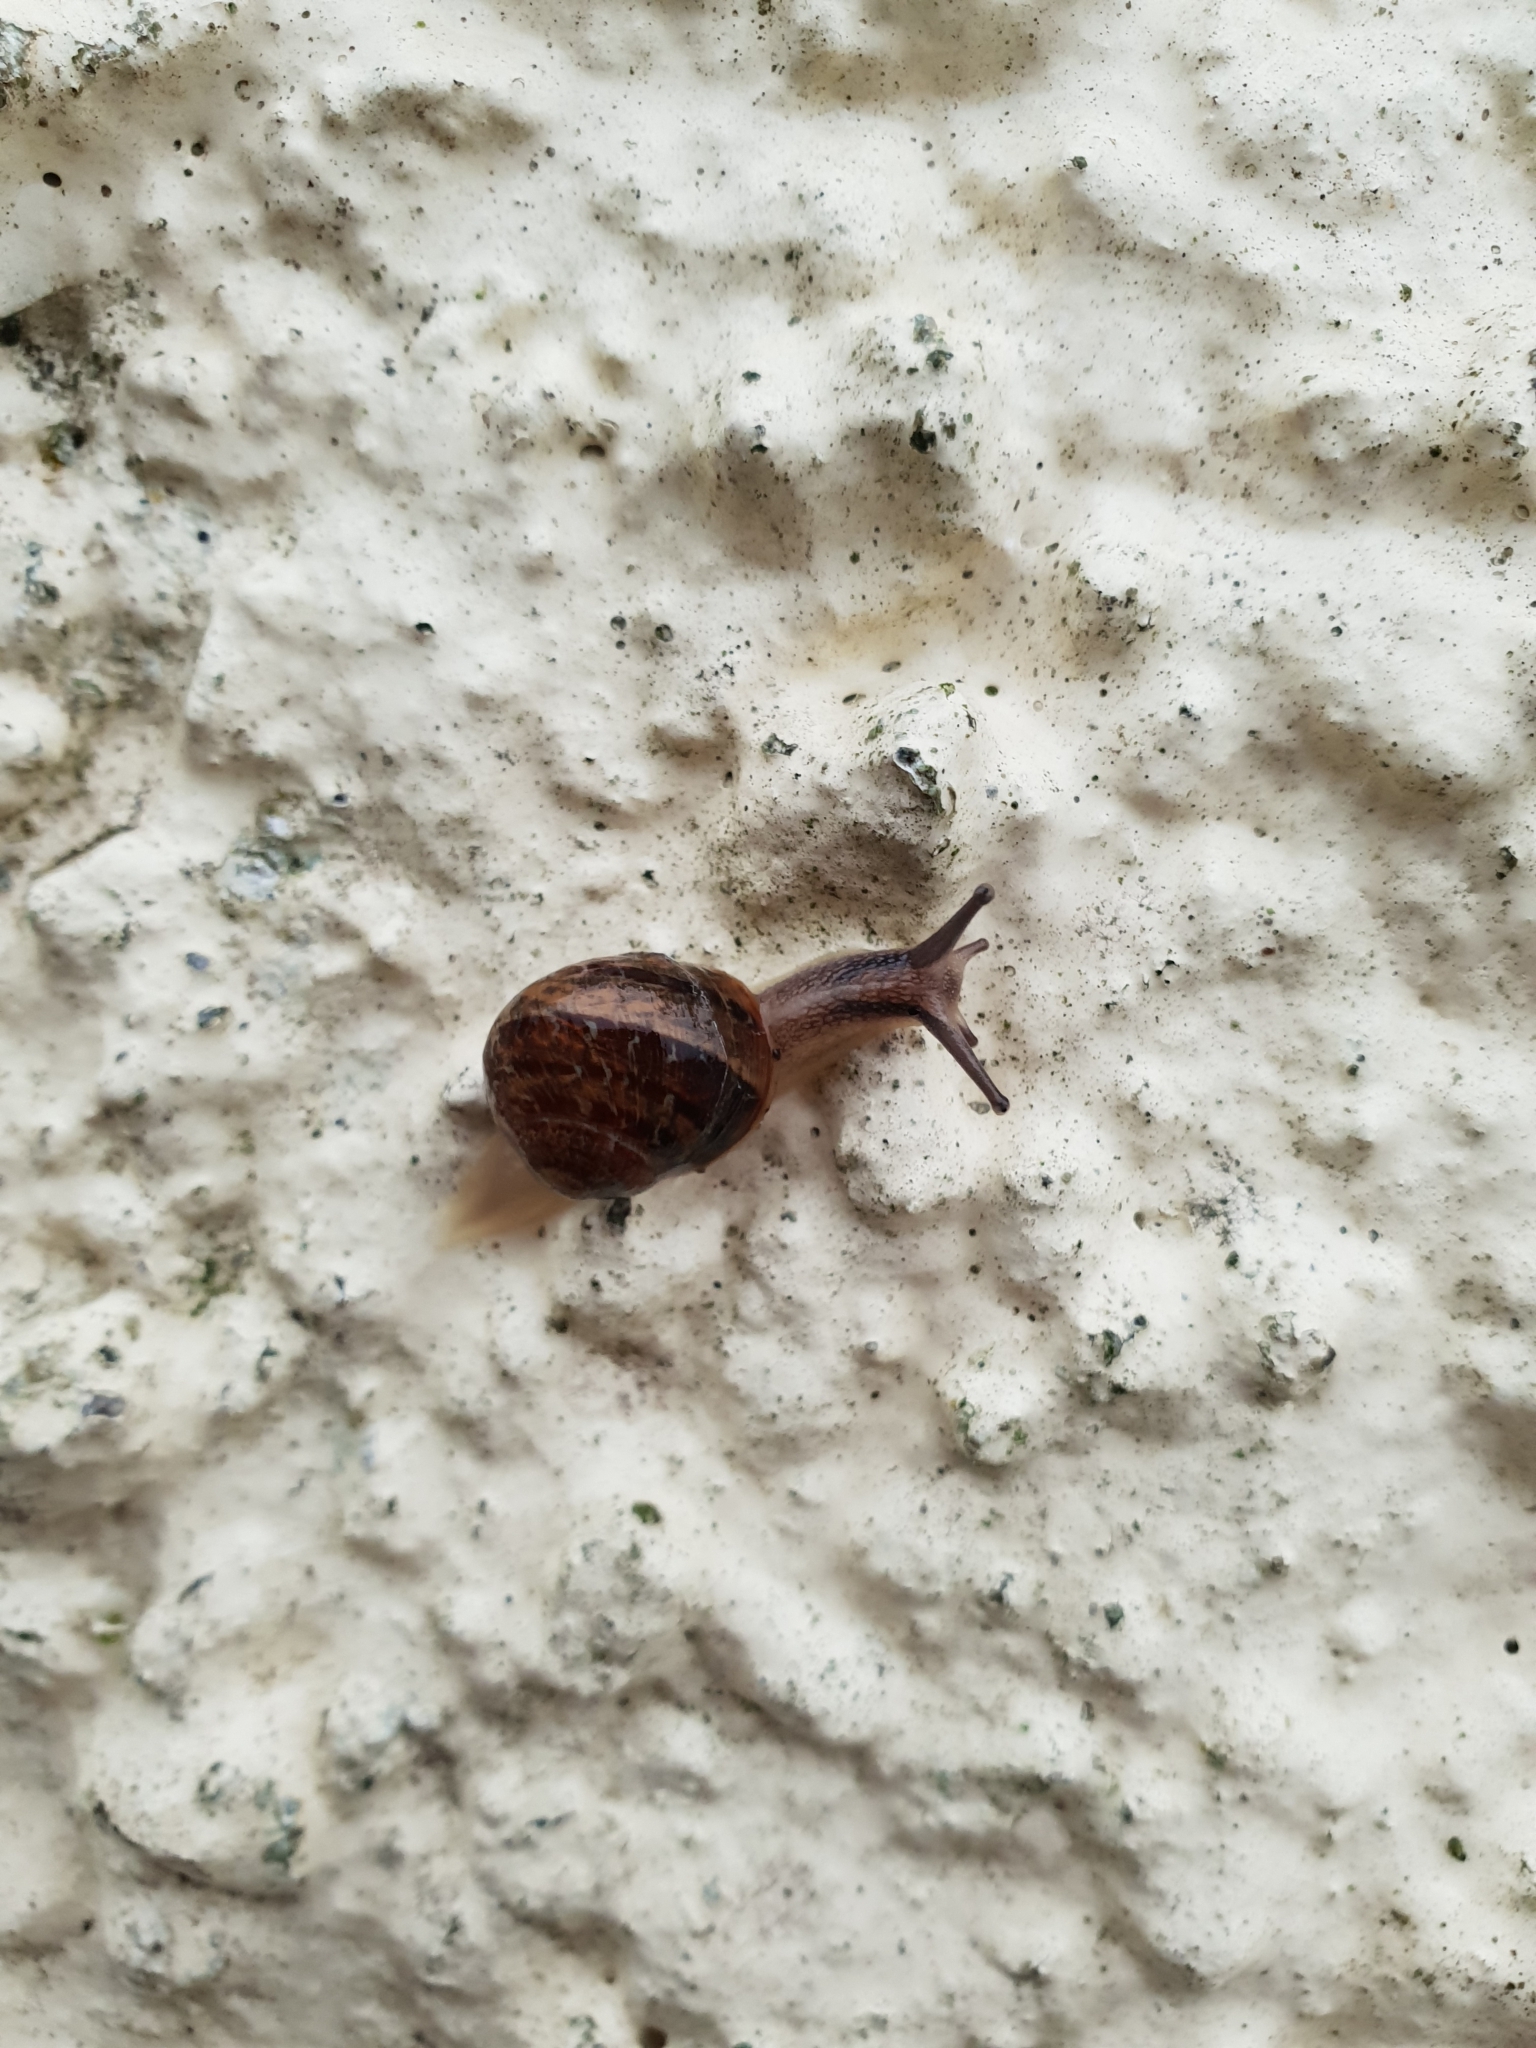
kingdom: Animalia
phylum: Mollusca
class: Gastropoda
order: Stylommatophora
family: Helicidae
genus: Cornu
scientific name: Cornu aspersum
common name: Brown garden snail
